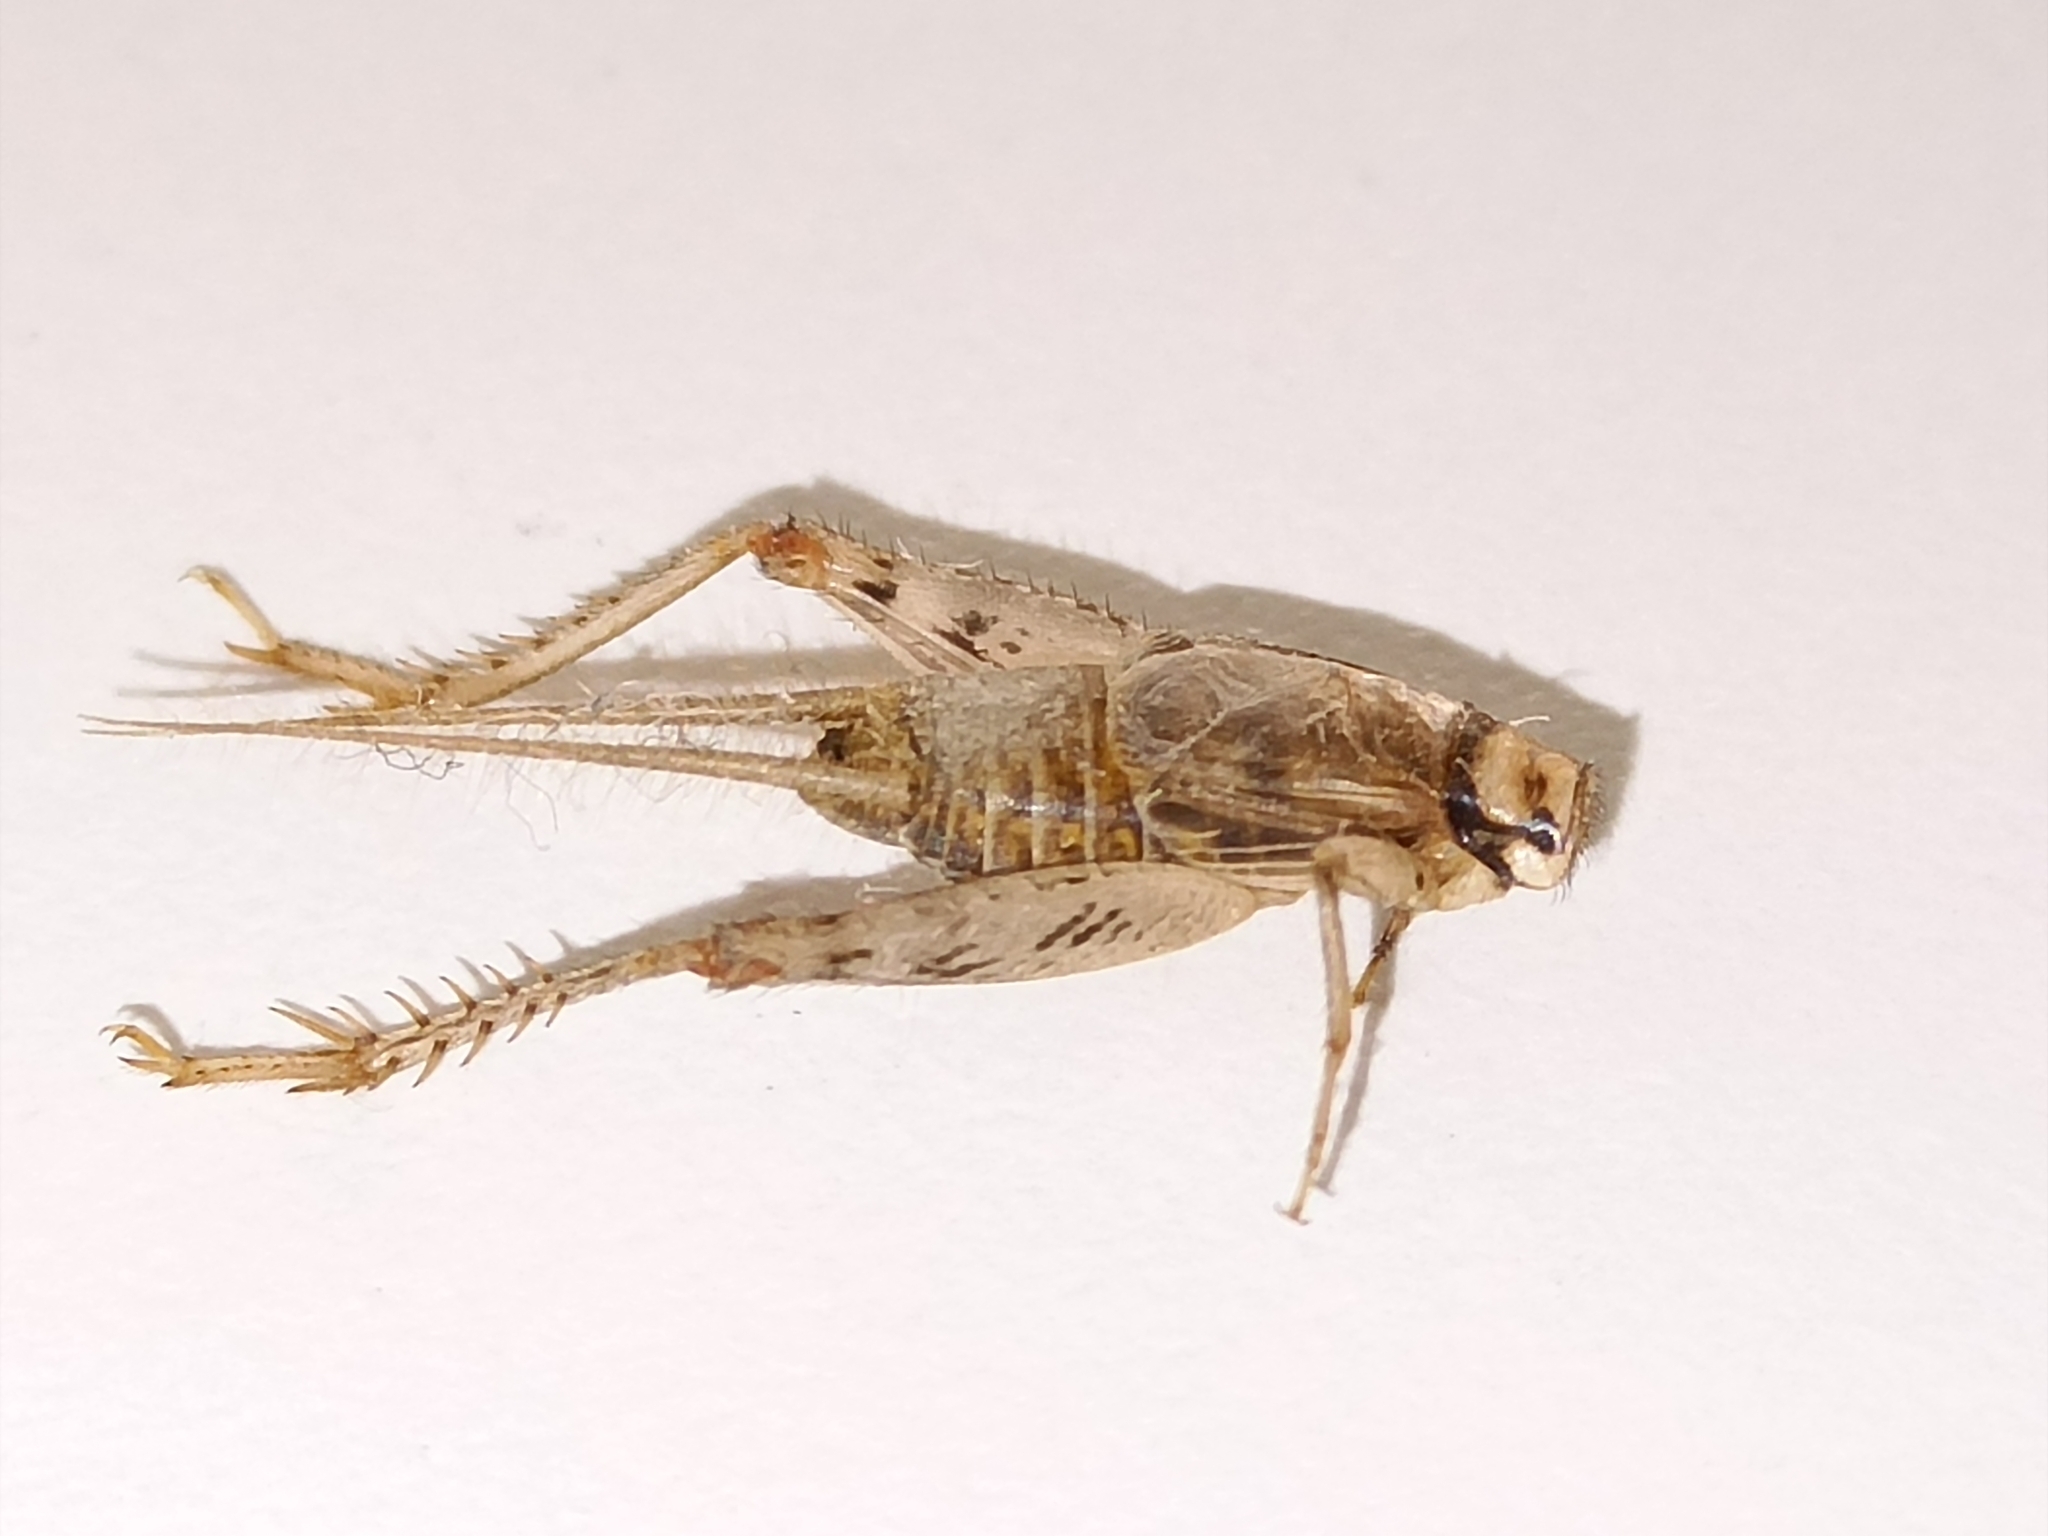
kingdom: Animalia
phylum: Arthropoda
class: Insecta
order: Orthoptera
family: Gryllidae
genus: Gryllodes
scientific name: Gryllodes sigillatus
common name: Tropical house cricket
